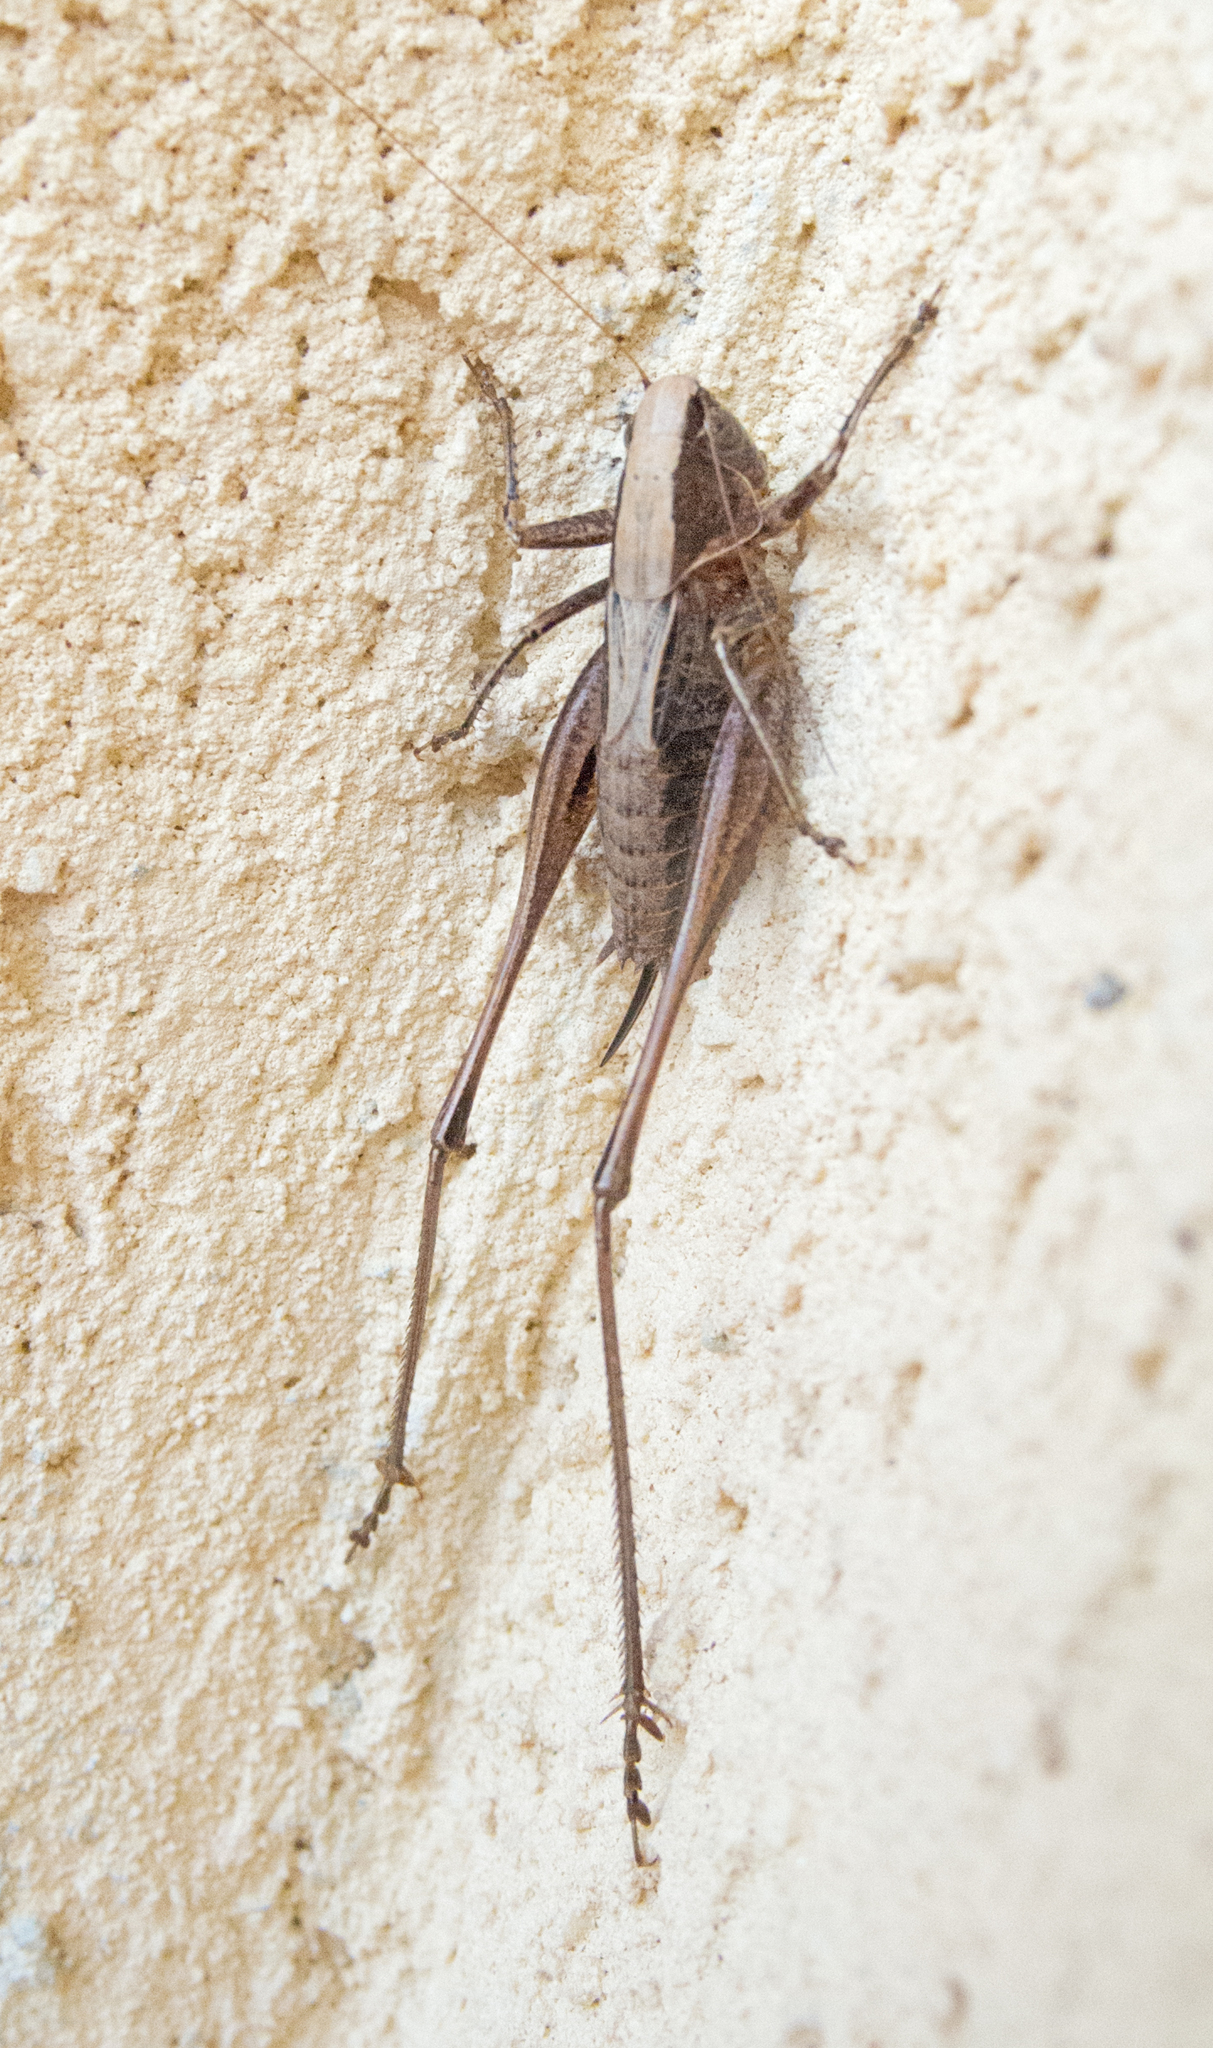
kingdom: Animalia
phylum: Arthropoda
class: Insecta
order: Orthoptera
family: Tettigoniidae
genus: Incertana
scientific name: Incertana incerta
